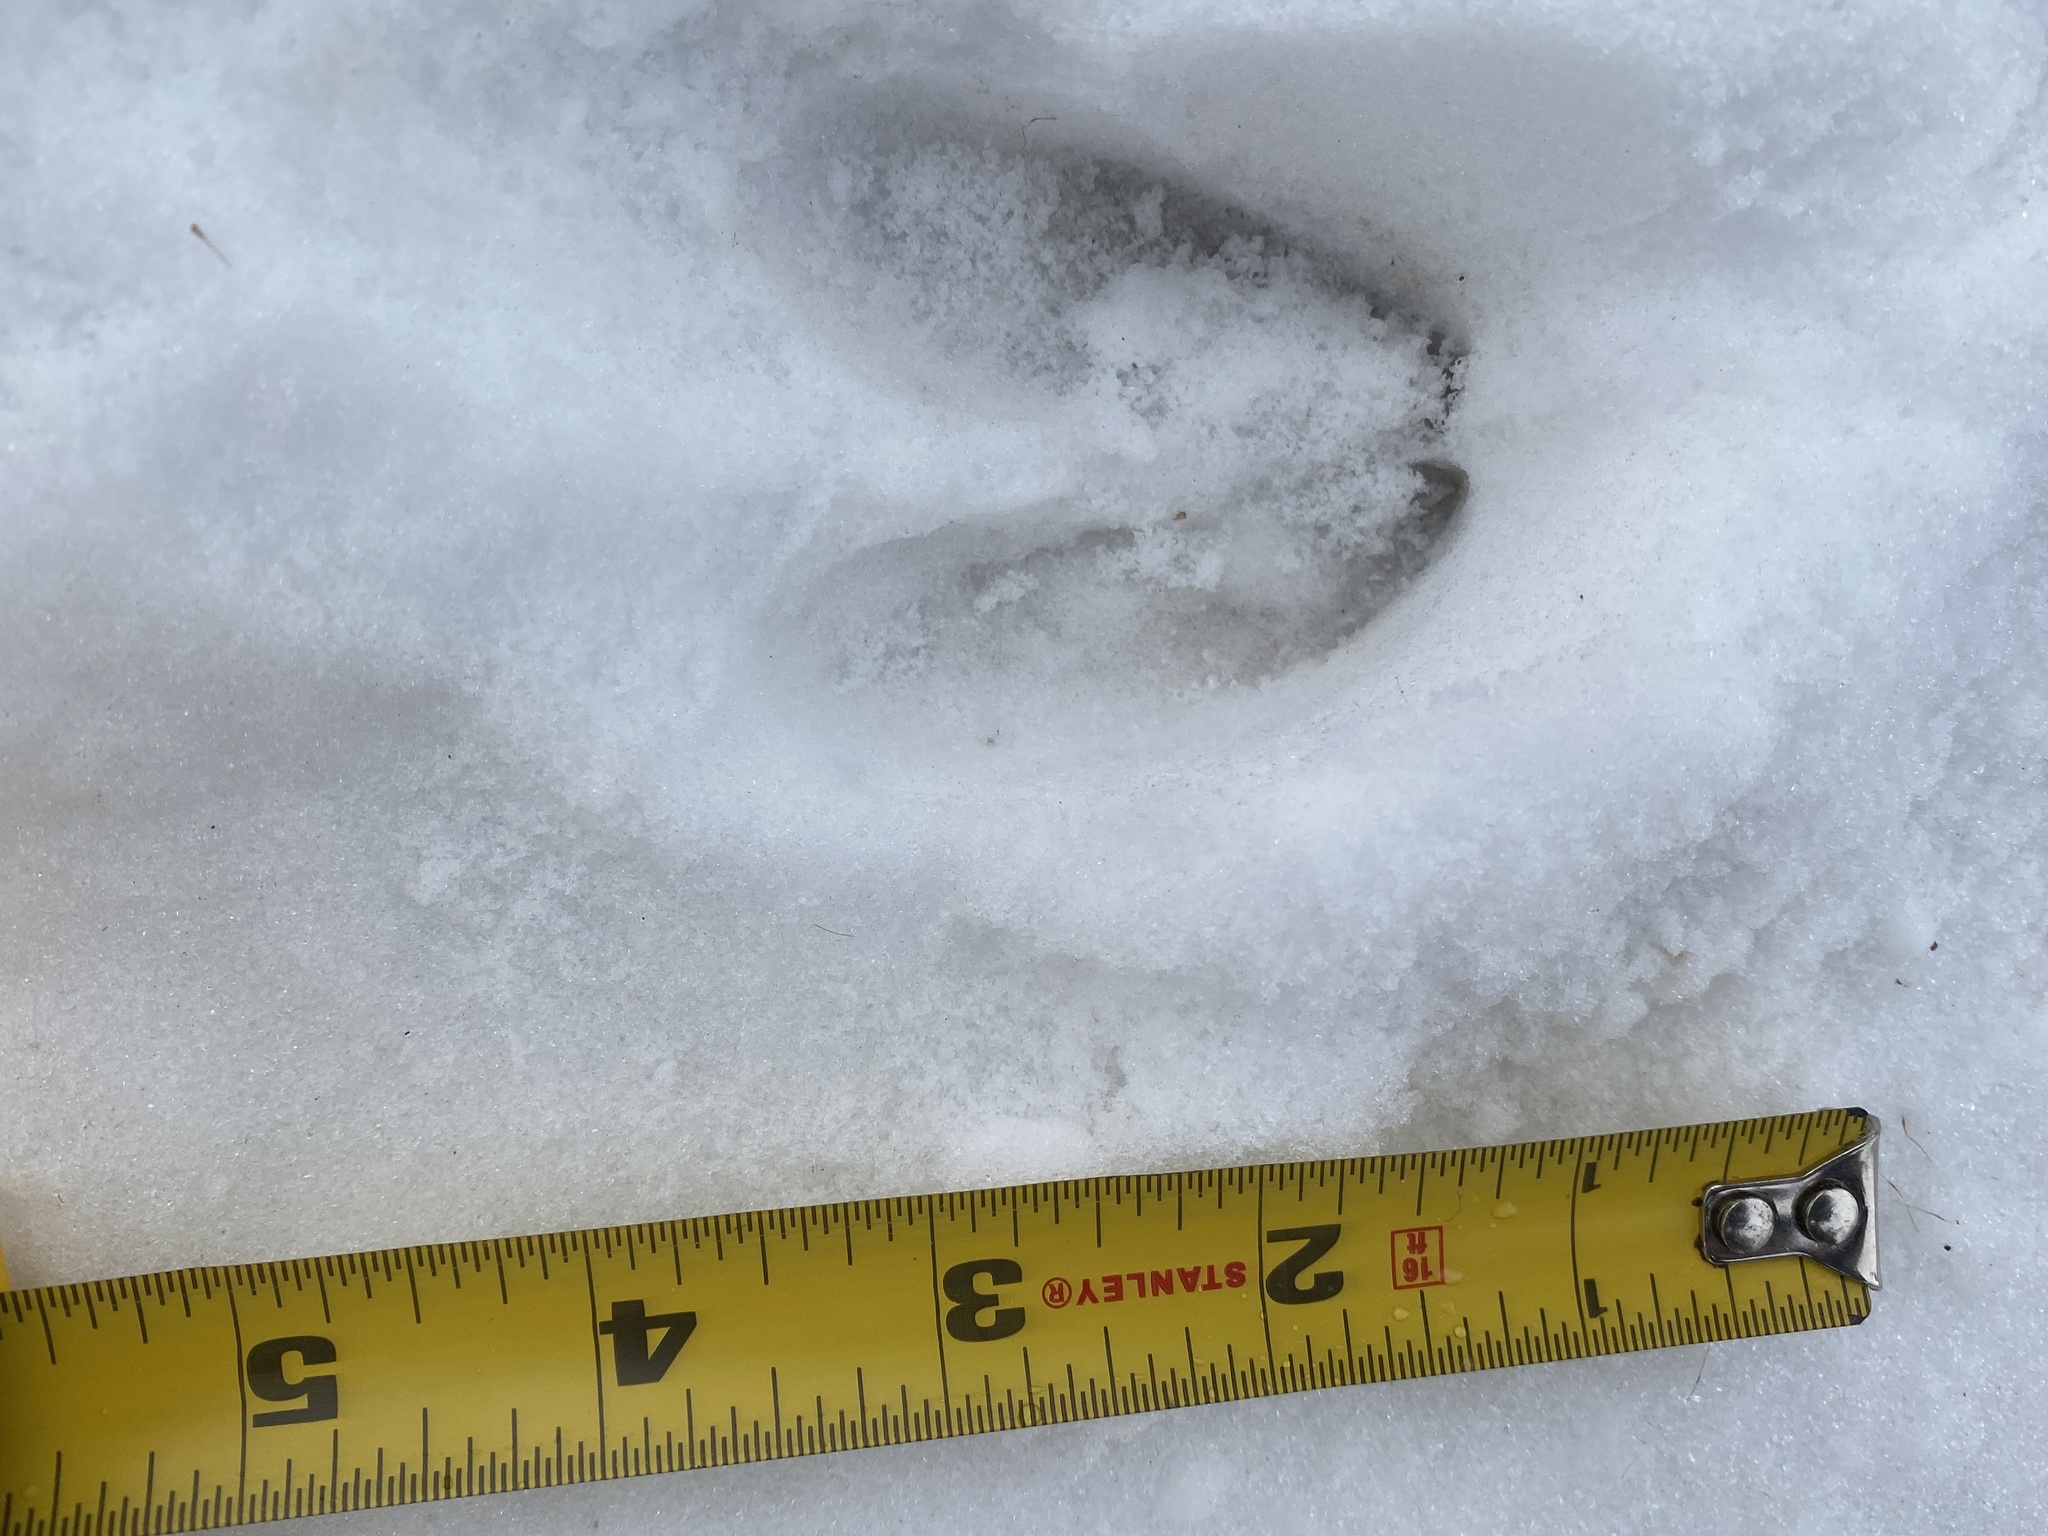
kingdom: Animalia
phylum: Chordata
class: Mammalia
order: Artiodactyla
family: Cervidae
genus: Odocoileus
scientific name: Odocoileus virginianus
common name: White-tailed deer
